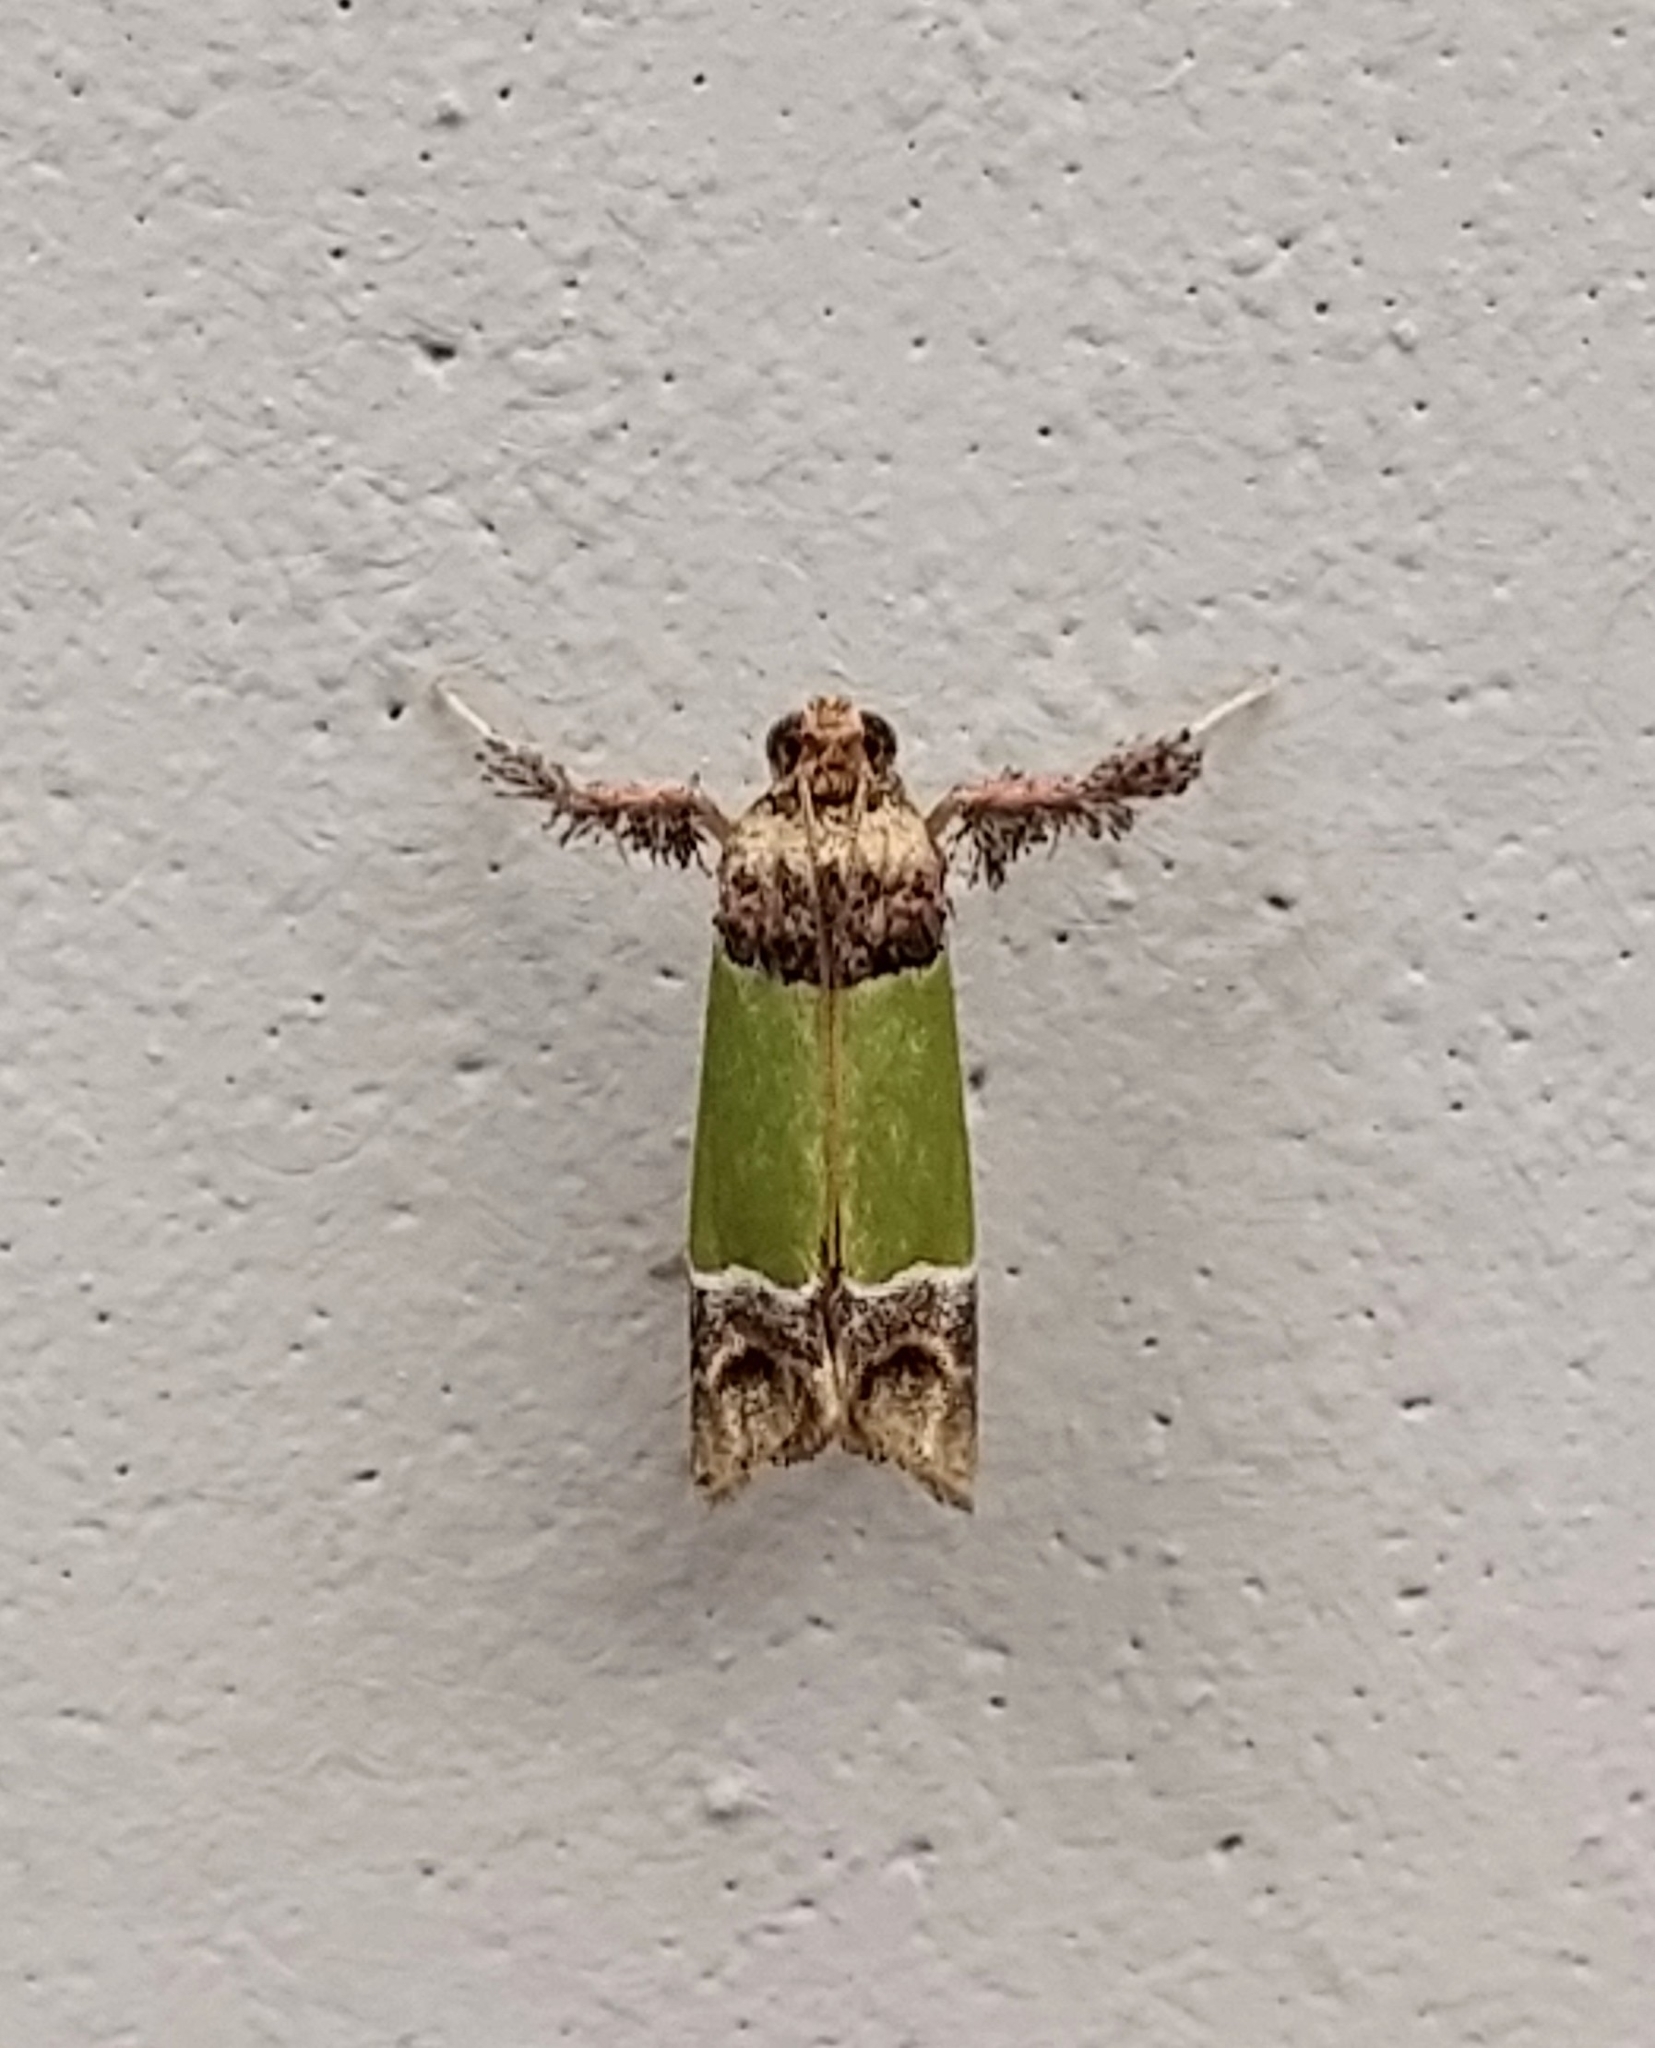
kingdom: Animalia
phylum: Arthropoda
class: Insecta
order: Lepidoptera
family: Pyralidae
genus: Epidelia
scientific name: Epidelia damia
